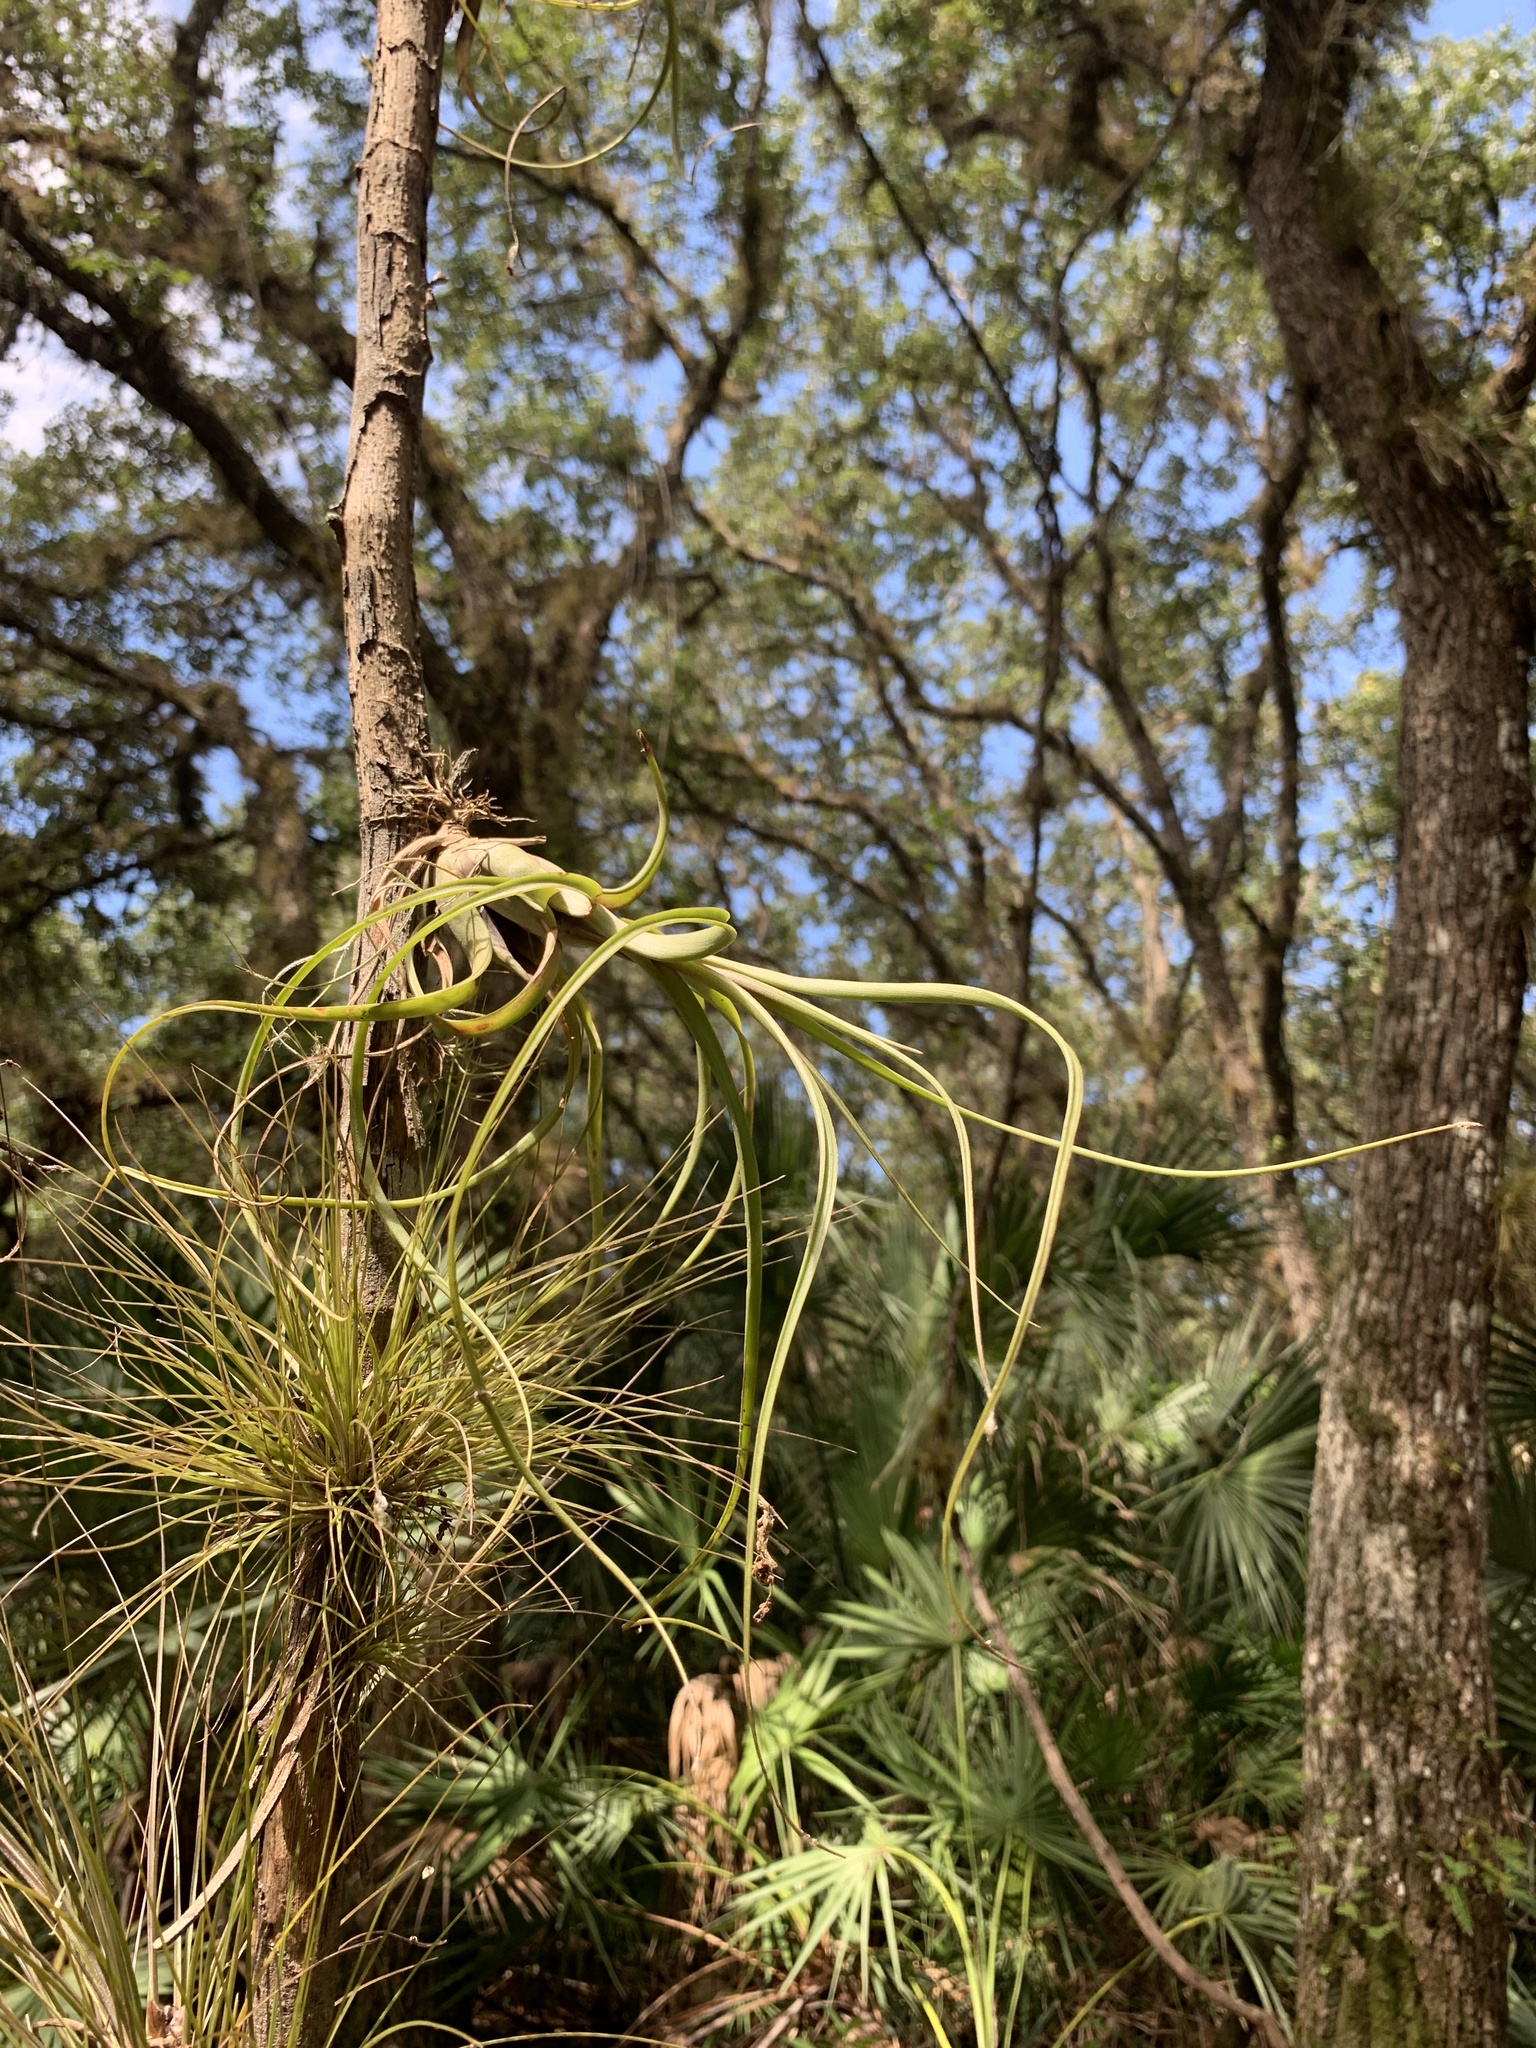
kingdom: Plantae
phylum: Tracheophyta
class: Liliopsida
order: Poales
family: Bromeliaceae
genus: Tillandsia
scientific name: Tillandsia balbisiana
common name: Northern needleleaf
